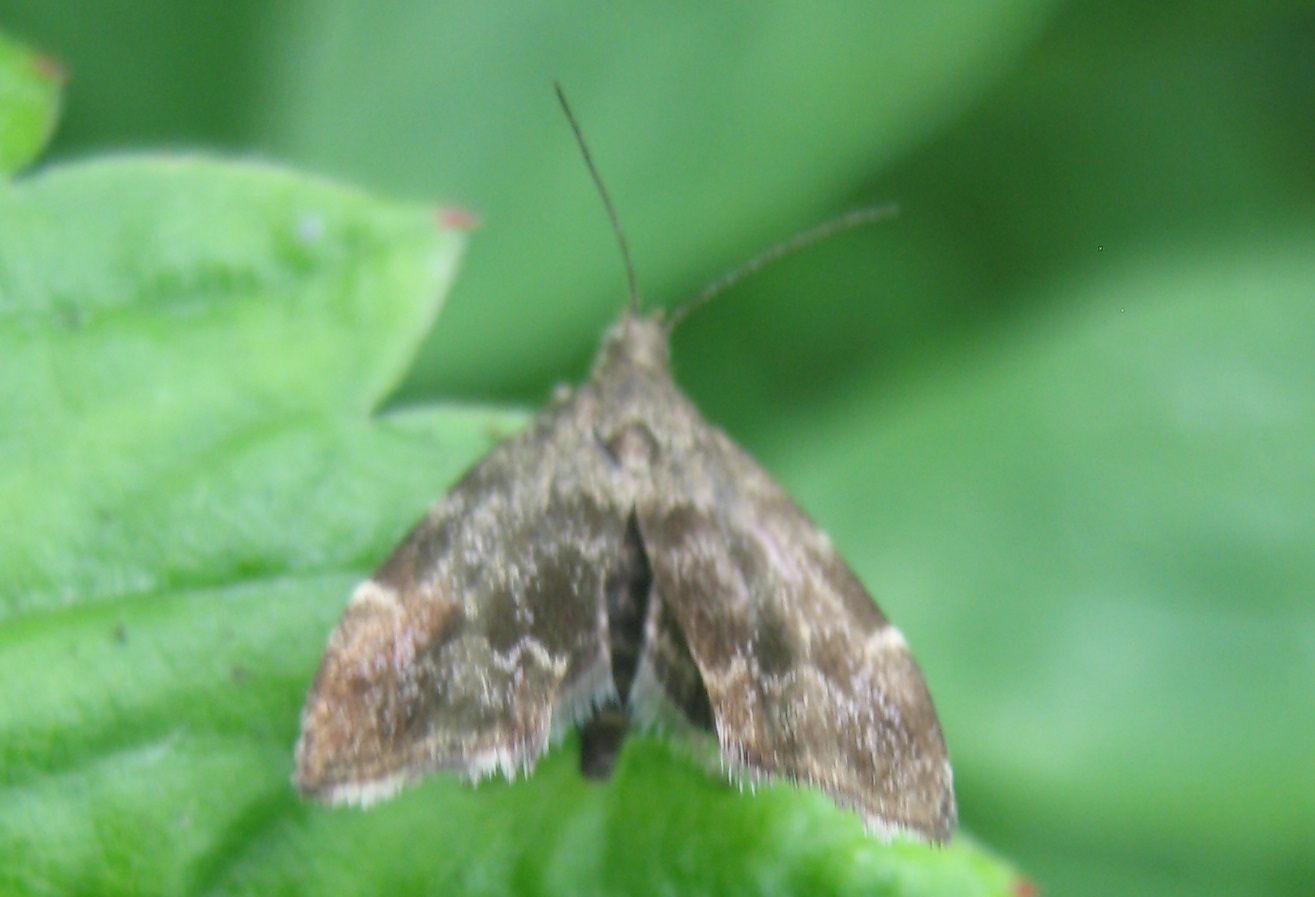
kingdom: Animalia
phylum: Arthropoda
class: Insecta
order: Lepidoptera
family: Choreutidae
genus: Anthophila
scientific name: Anthophila fabriciana
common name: Nettle-tap
